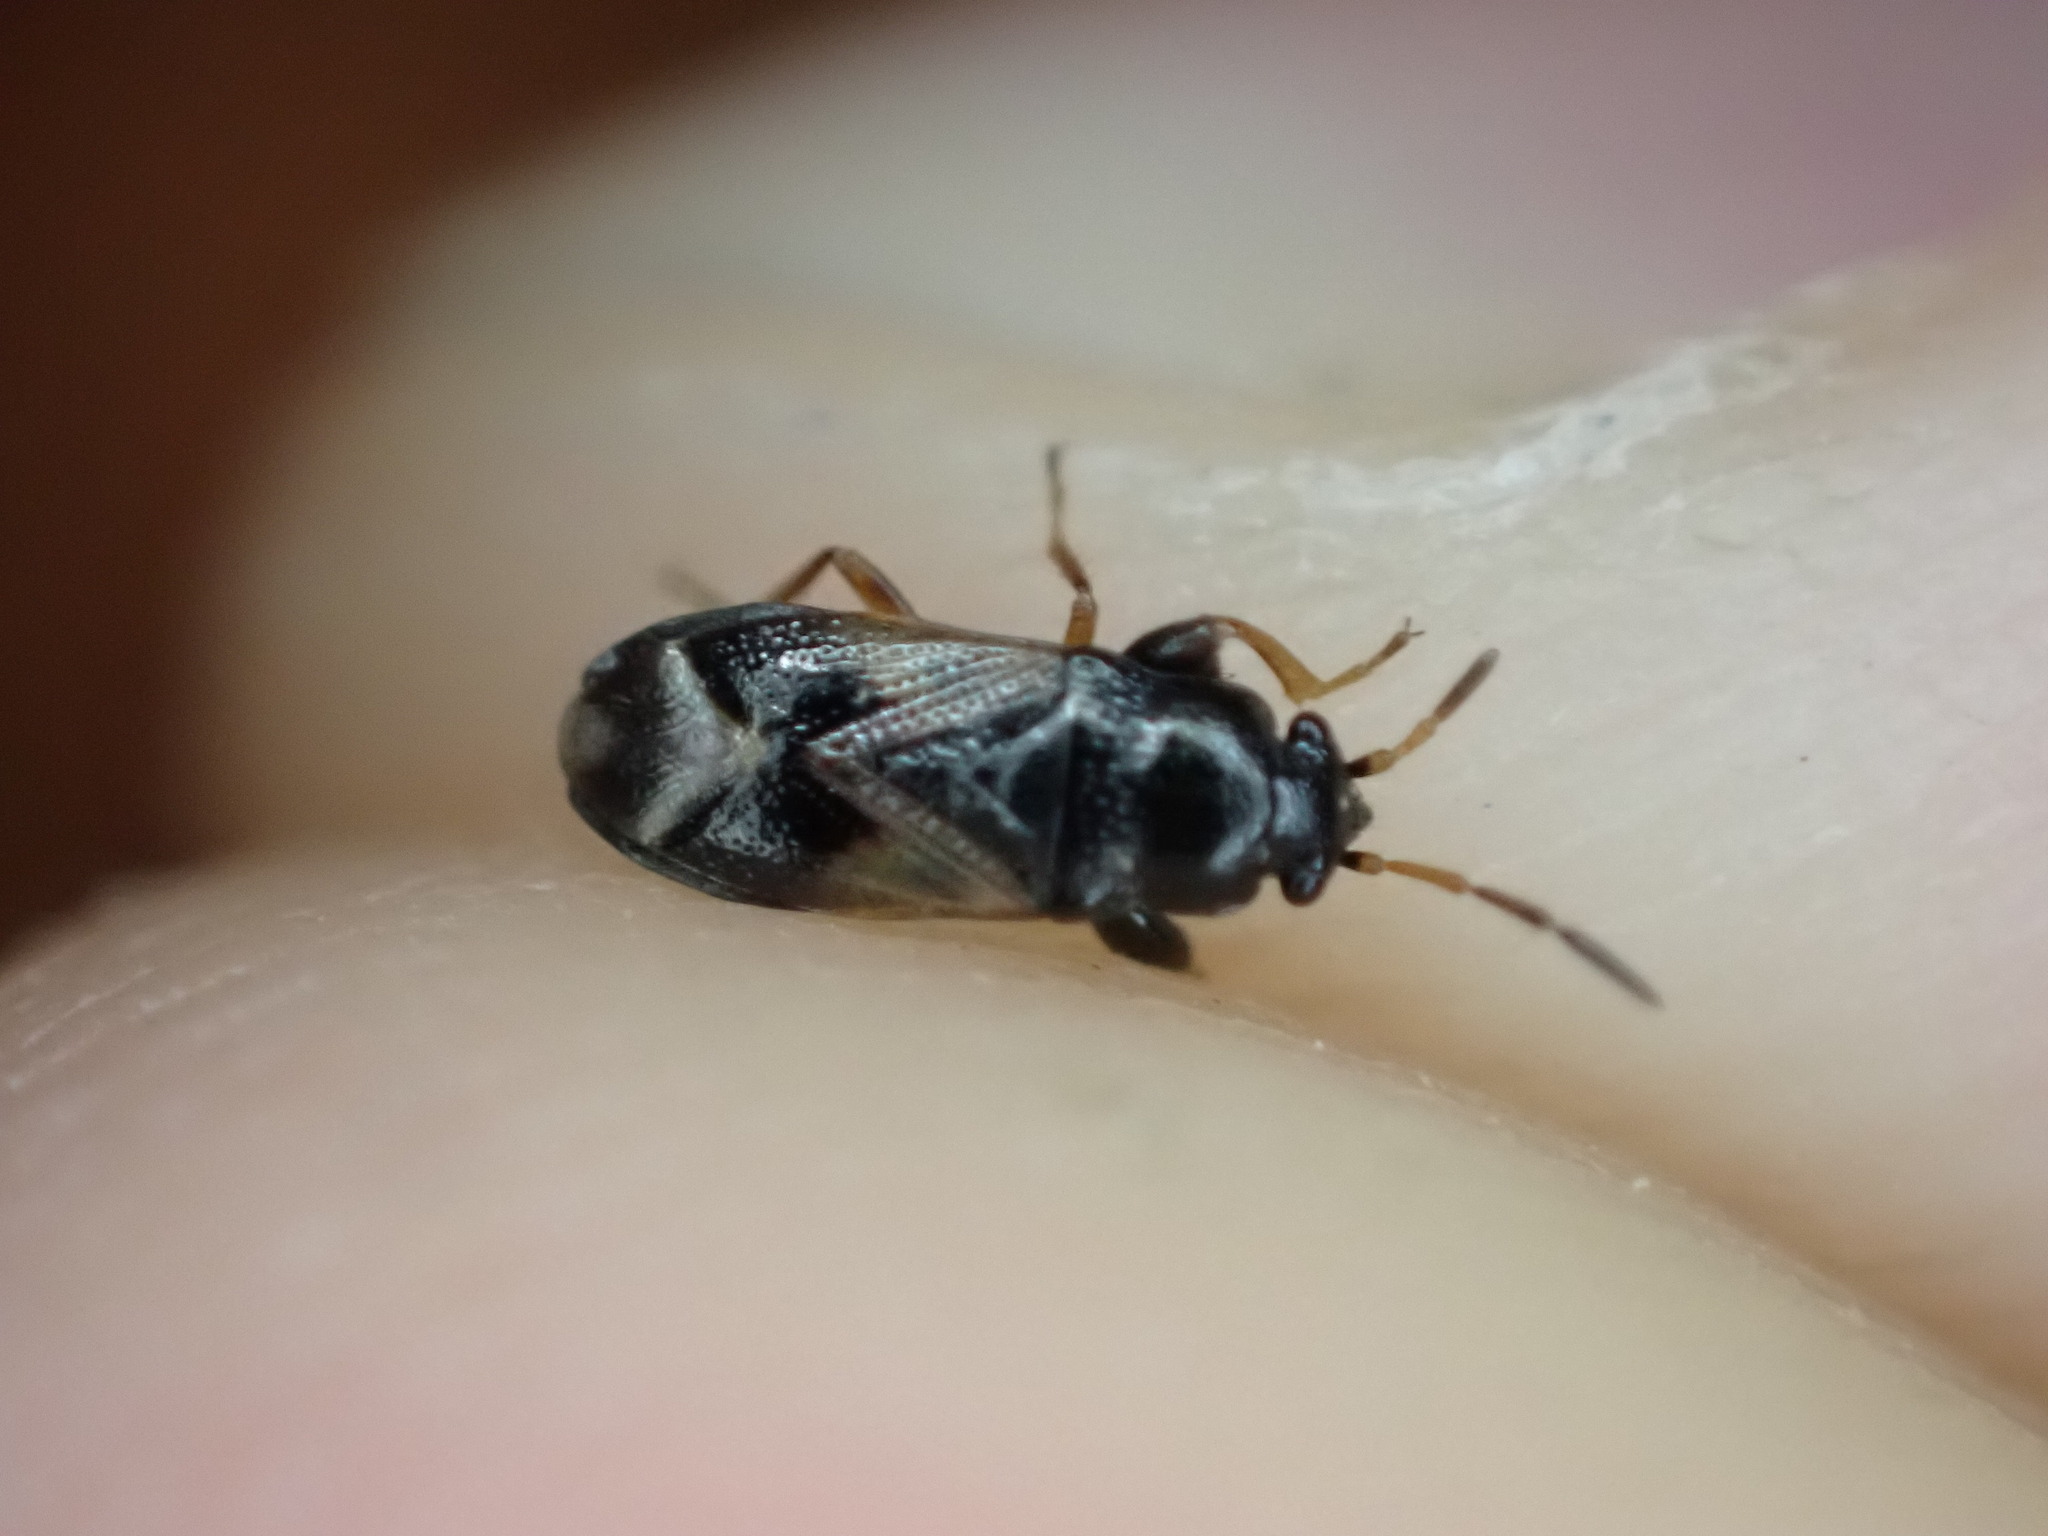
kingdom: Animalia
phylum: Arthropoda
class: Insecta
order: Hemiptera
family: Rhyparochromidae
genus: Megalonotus
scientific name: Megalonotus praetextatus
